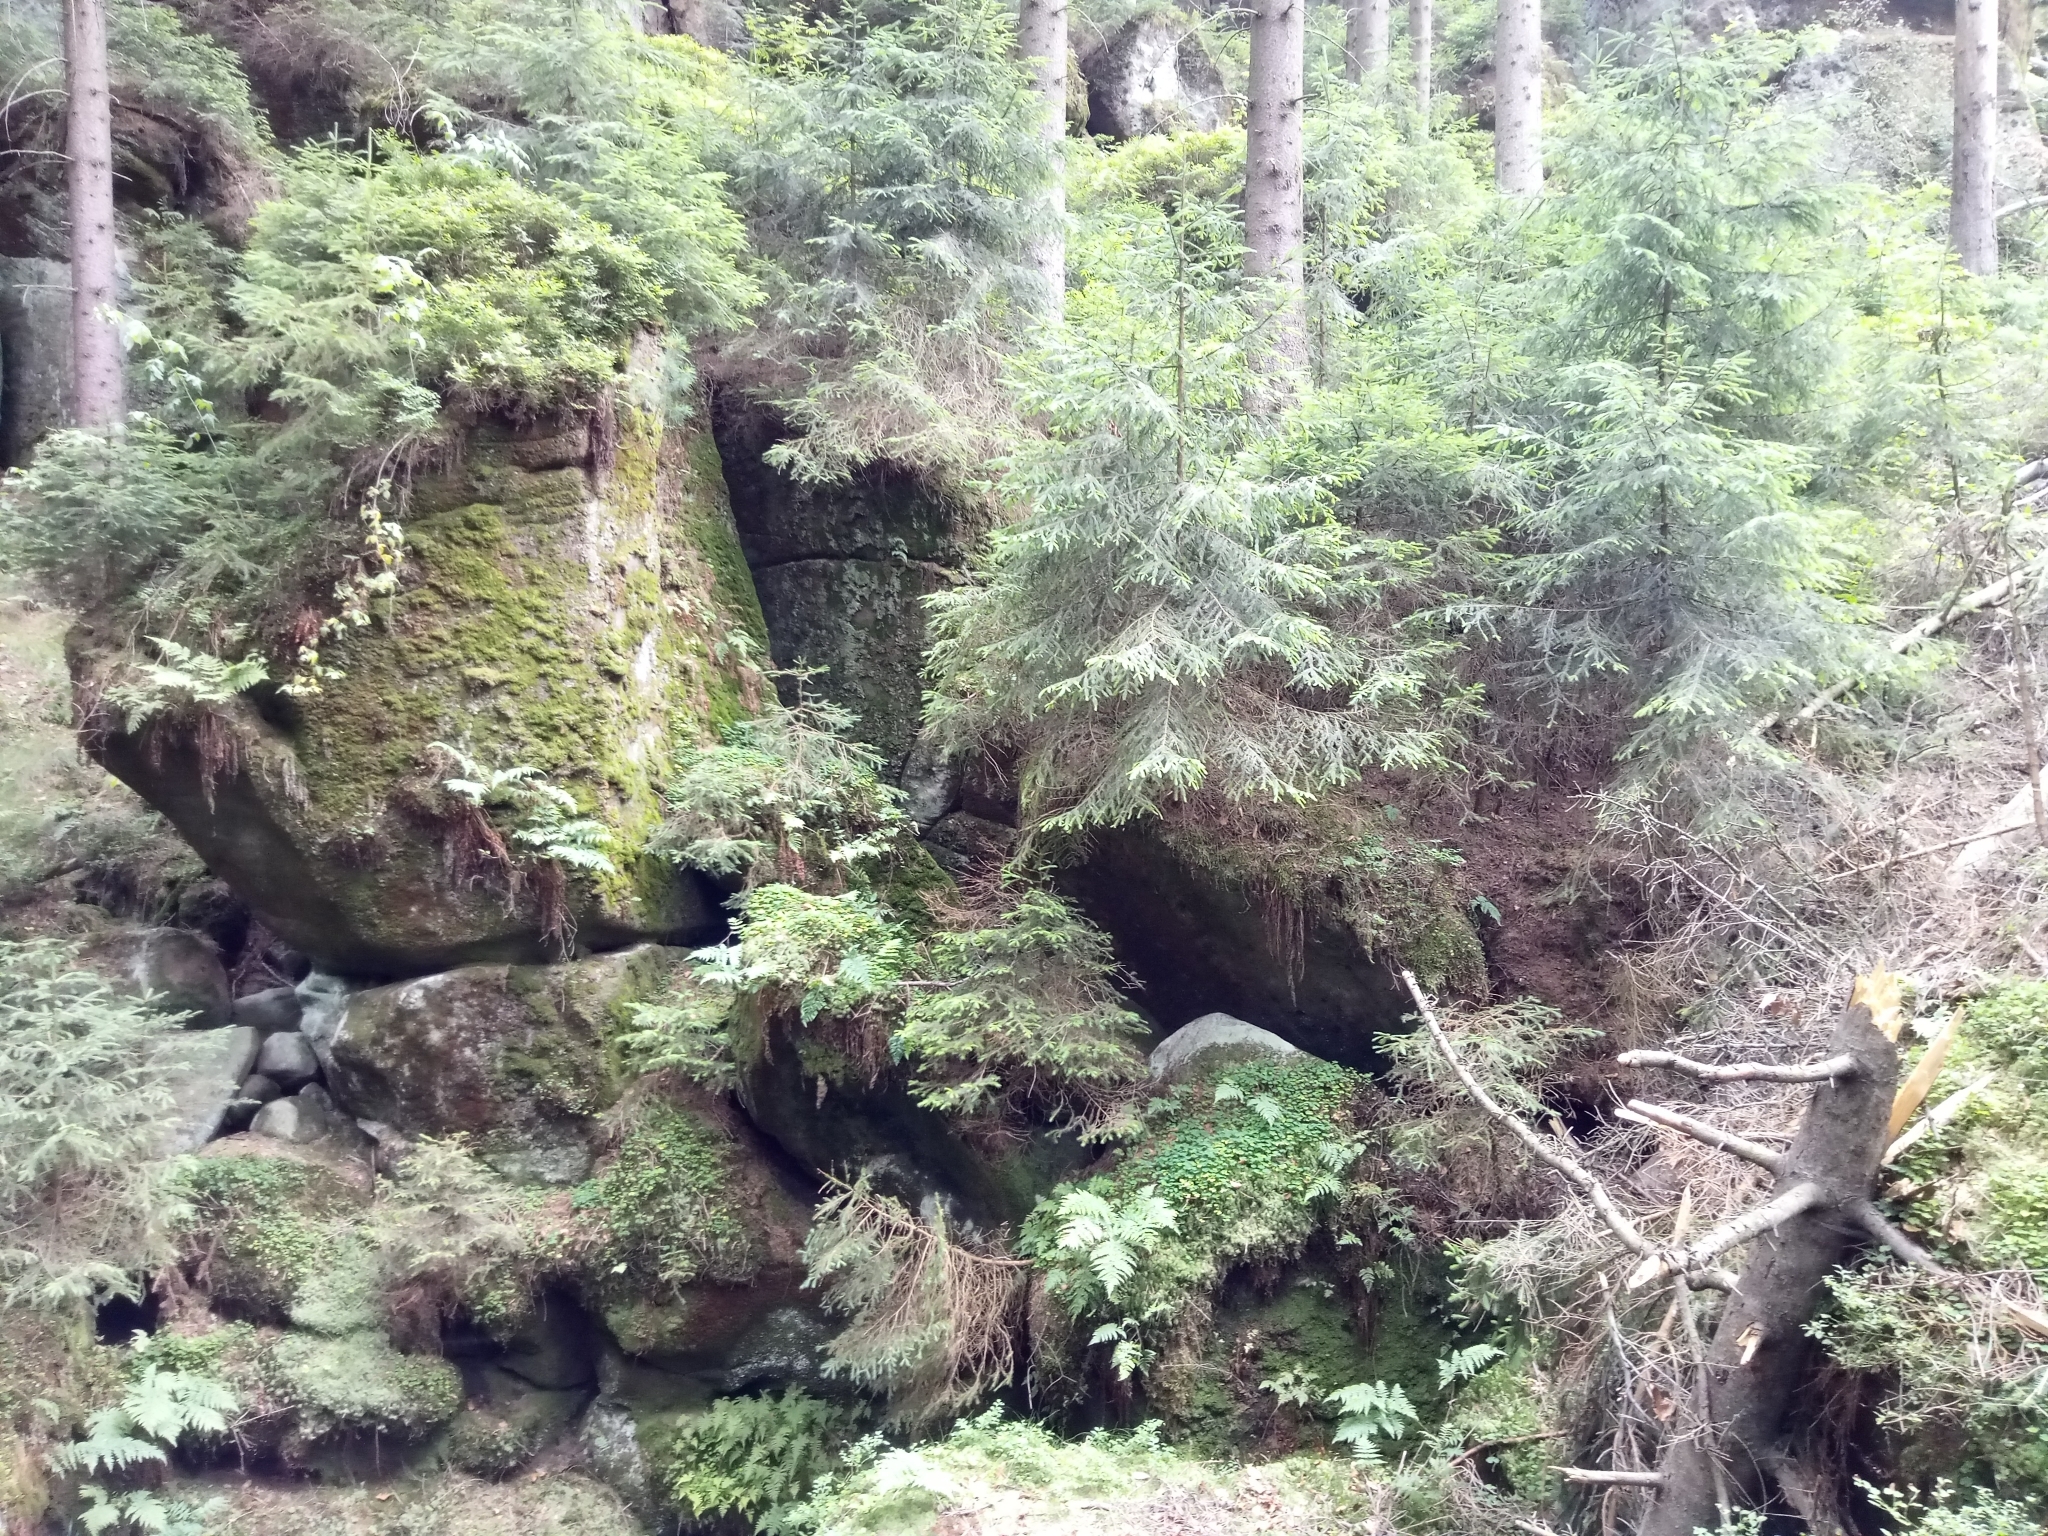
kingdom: Plantae
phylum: Tracheophyta
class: Pinopsida
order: Pinales
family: Pinaceae
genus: Picea
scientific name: Picea abies
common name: Norway spruce
